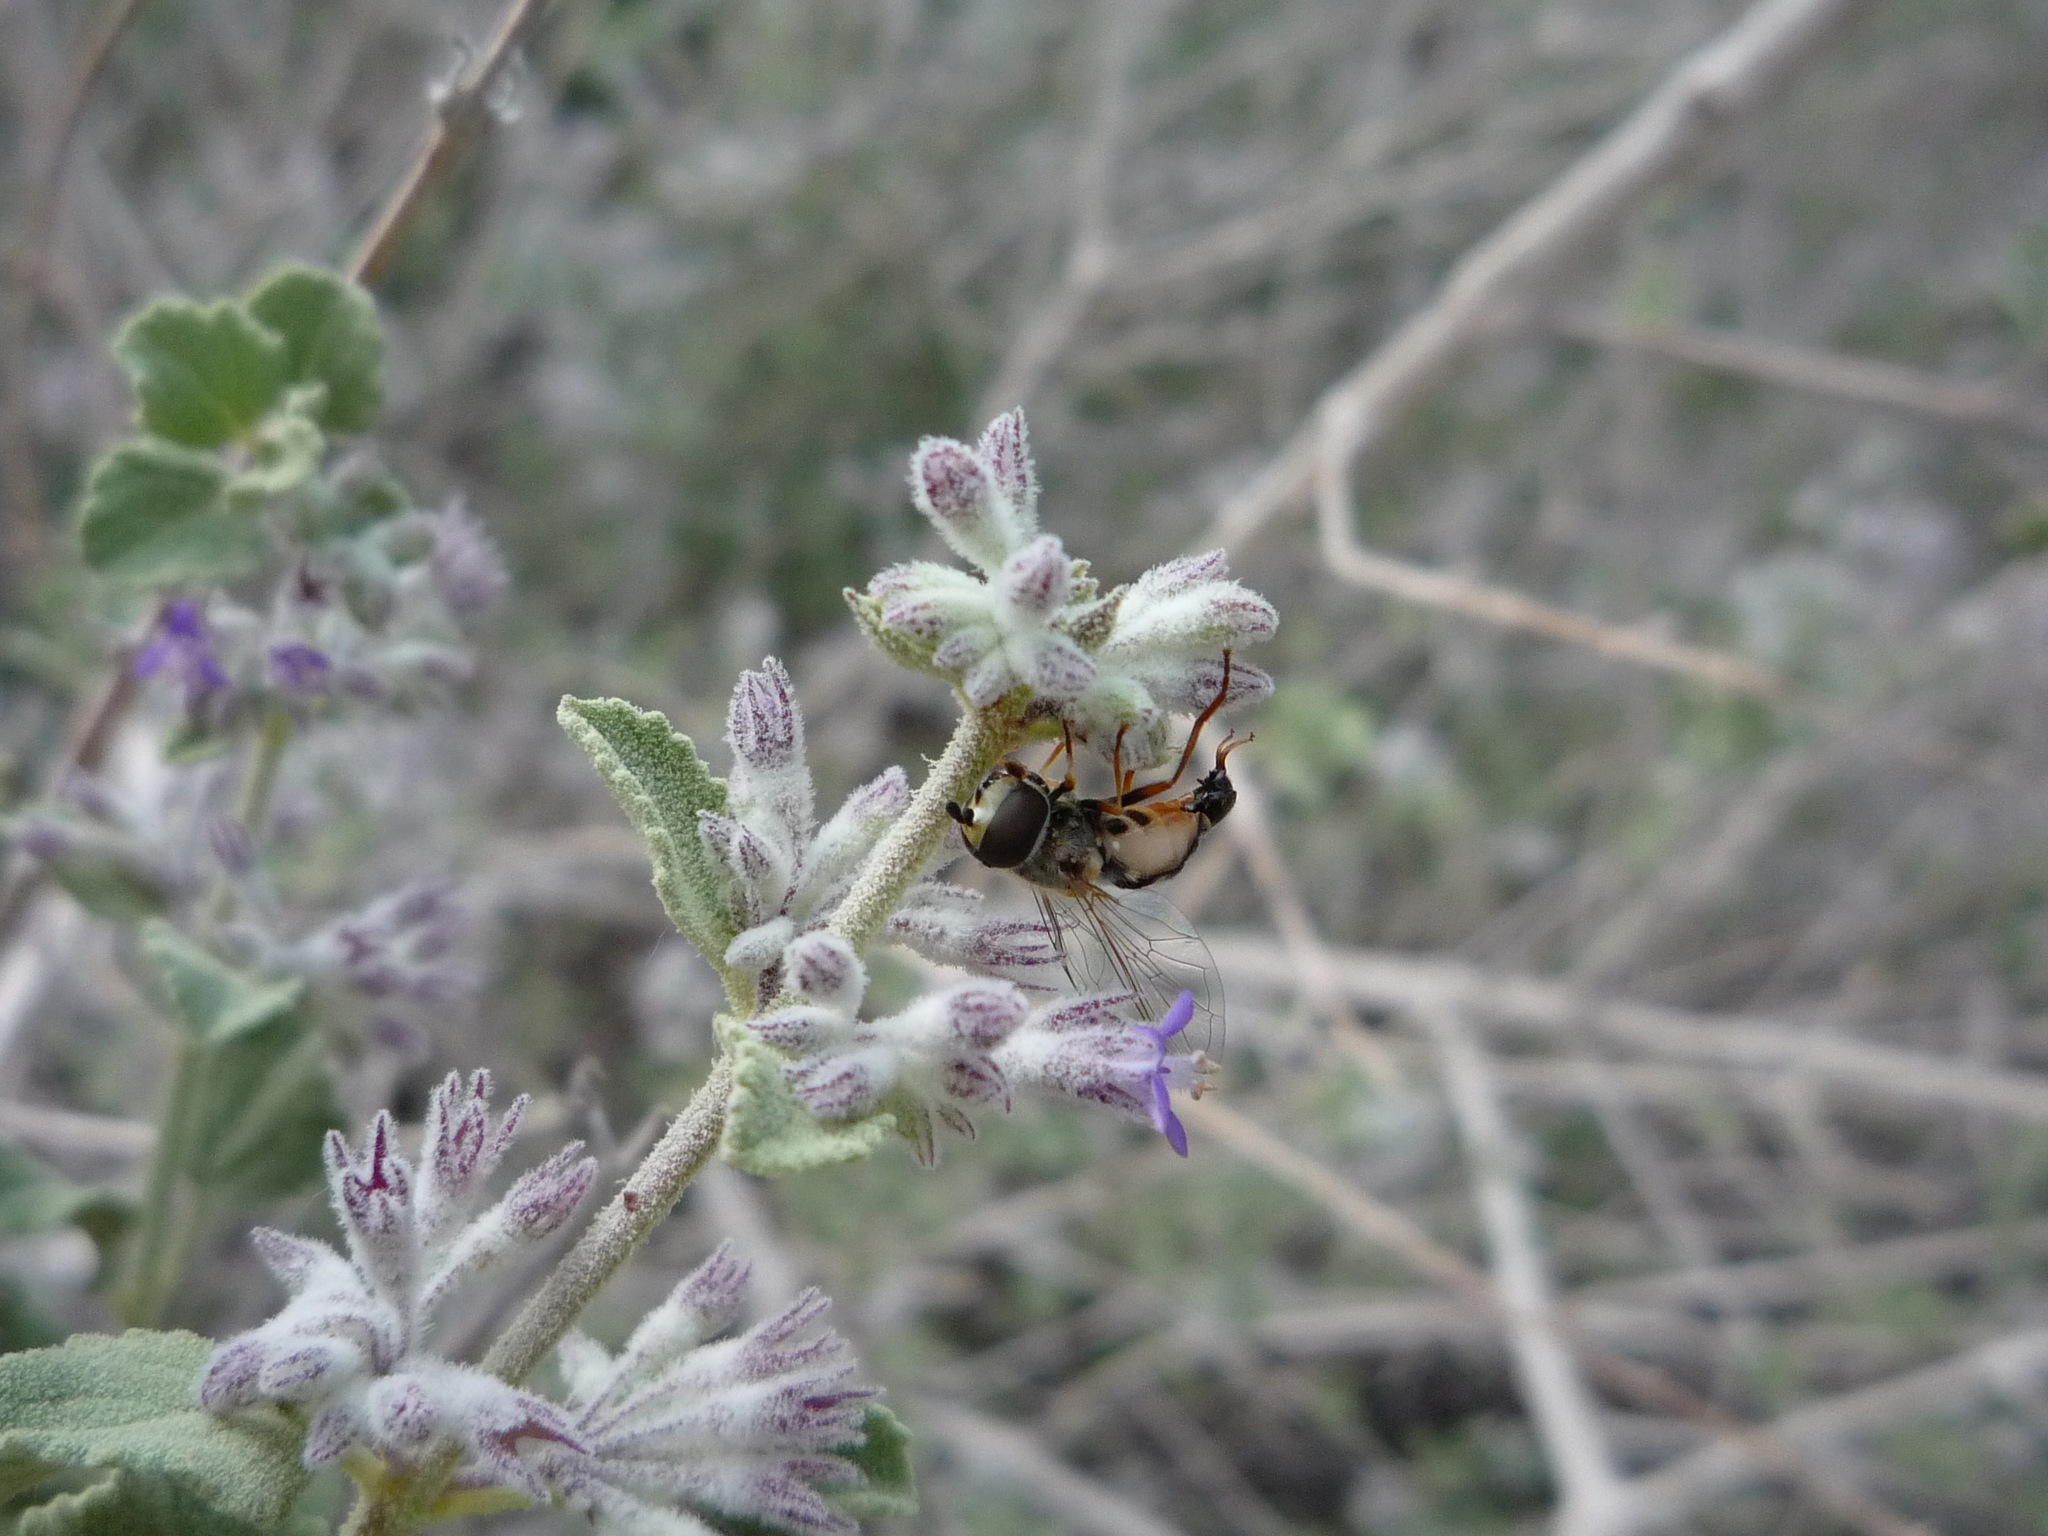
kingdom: Animalia
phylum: Arthropoda
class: Insecta
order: Diptera
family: Syrphidae
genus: Eupeodes
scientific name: Eupeodes volucris
